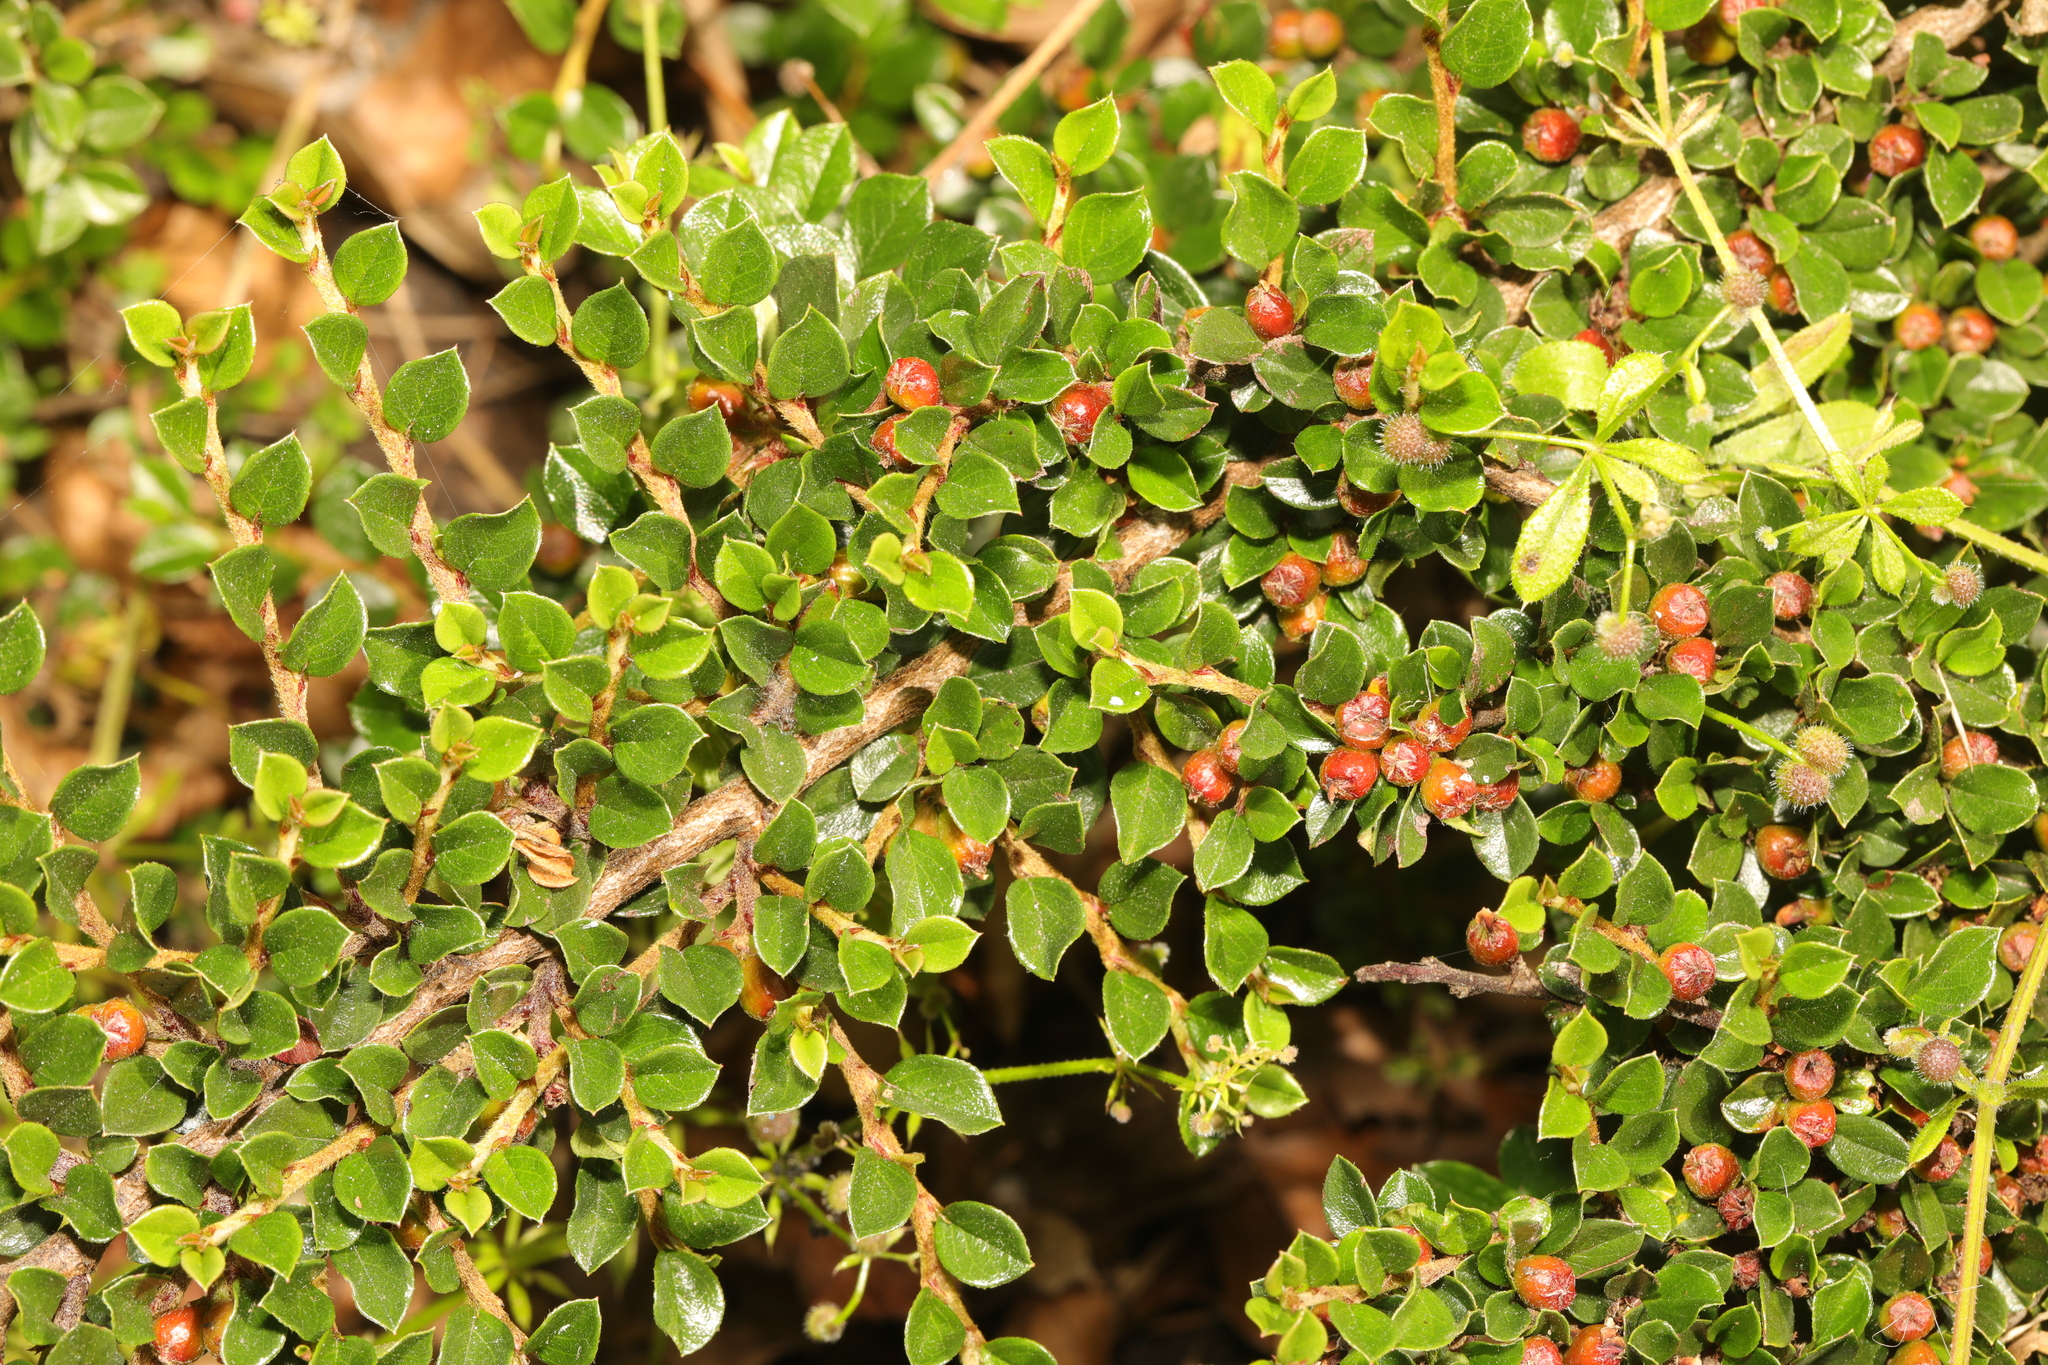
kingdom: Plantae
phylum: Tracheophyta
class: Magnoliopsida
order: Rosales
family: Rosaceae
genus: Cotoneaster
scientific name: Cotoneaster horizontalis
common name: Wall cotoneaster
